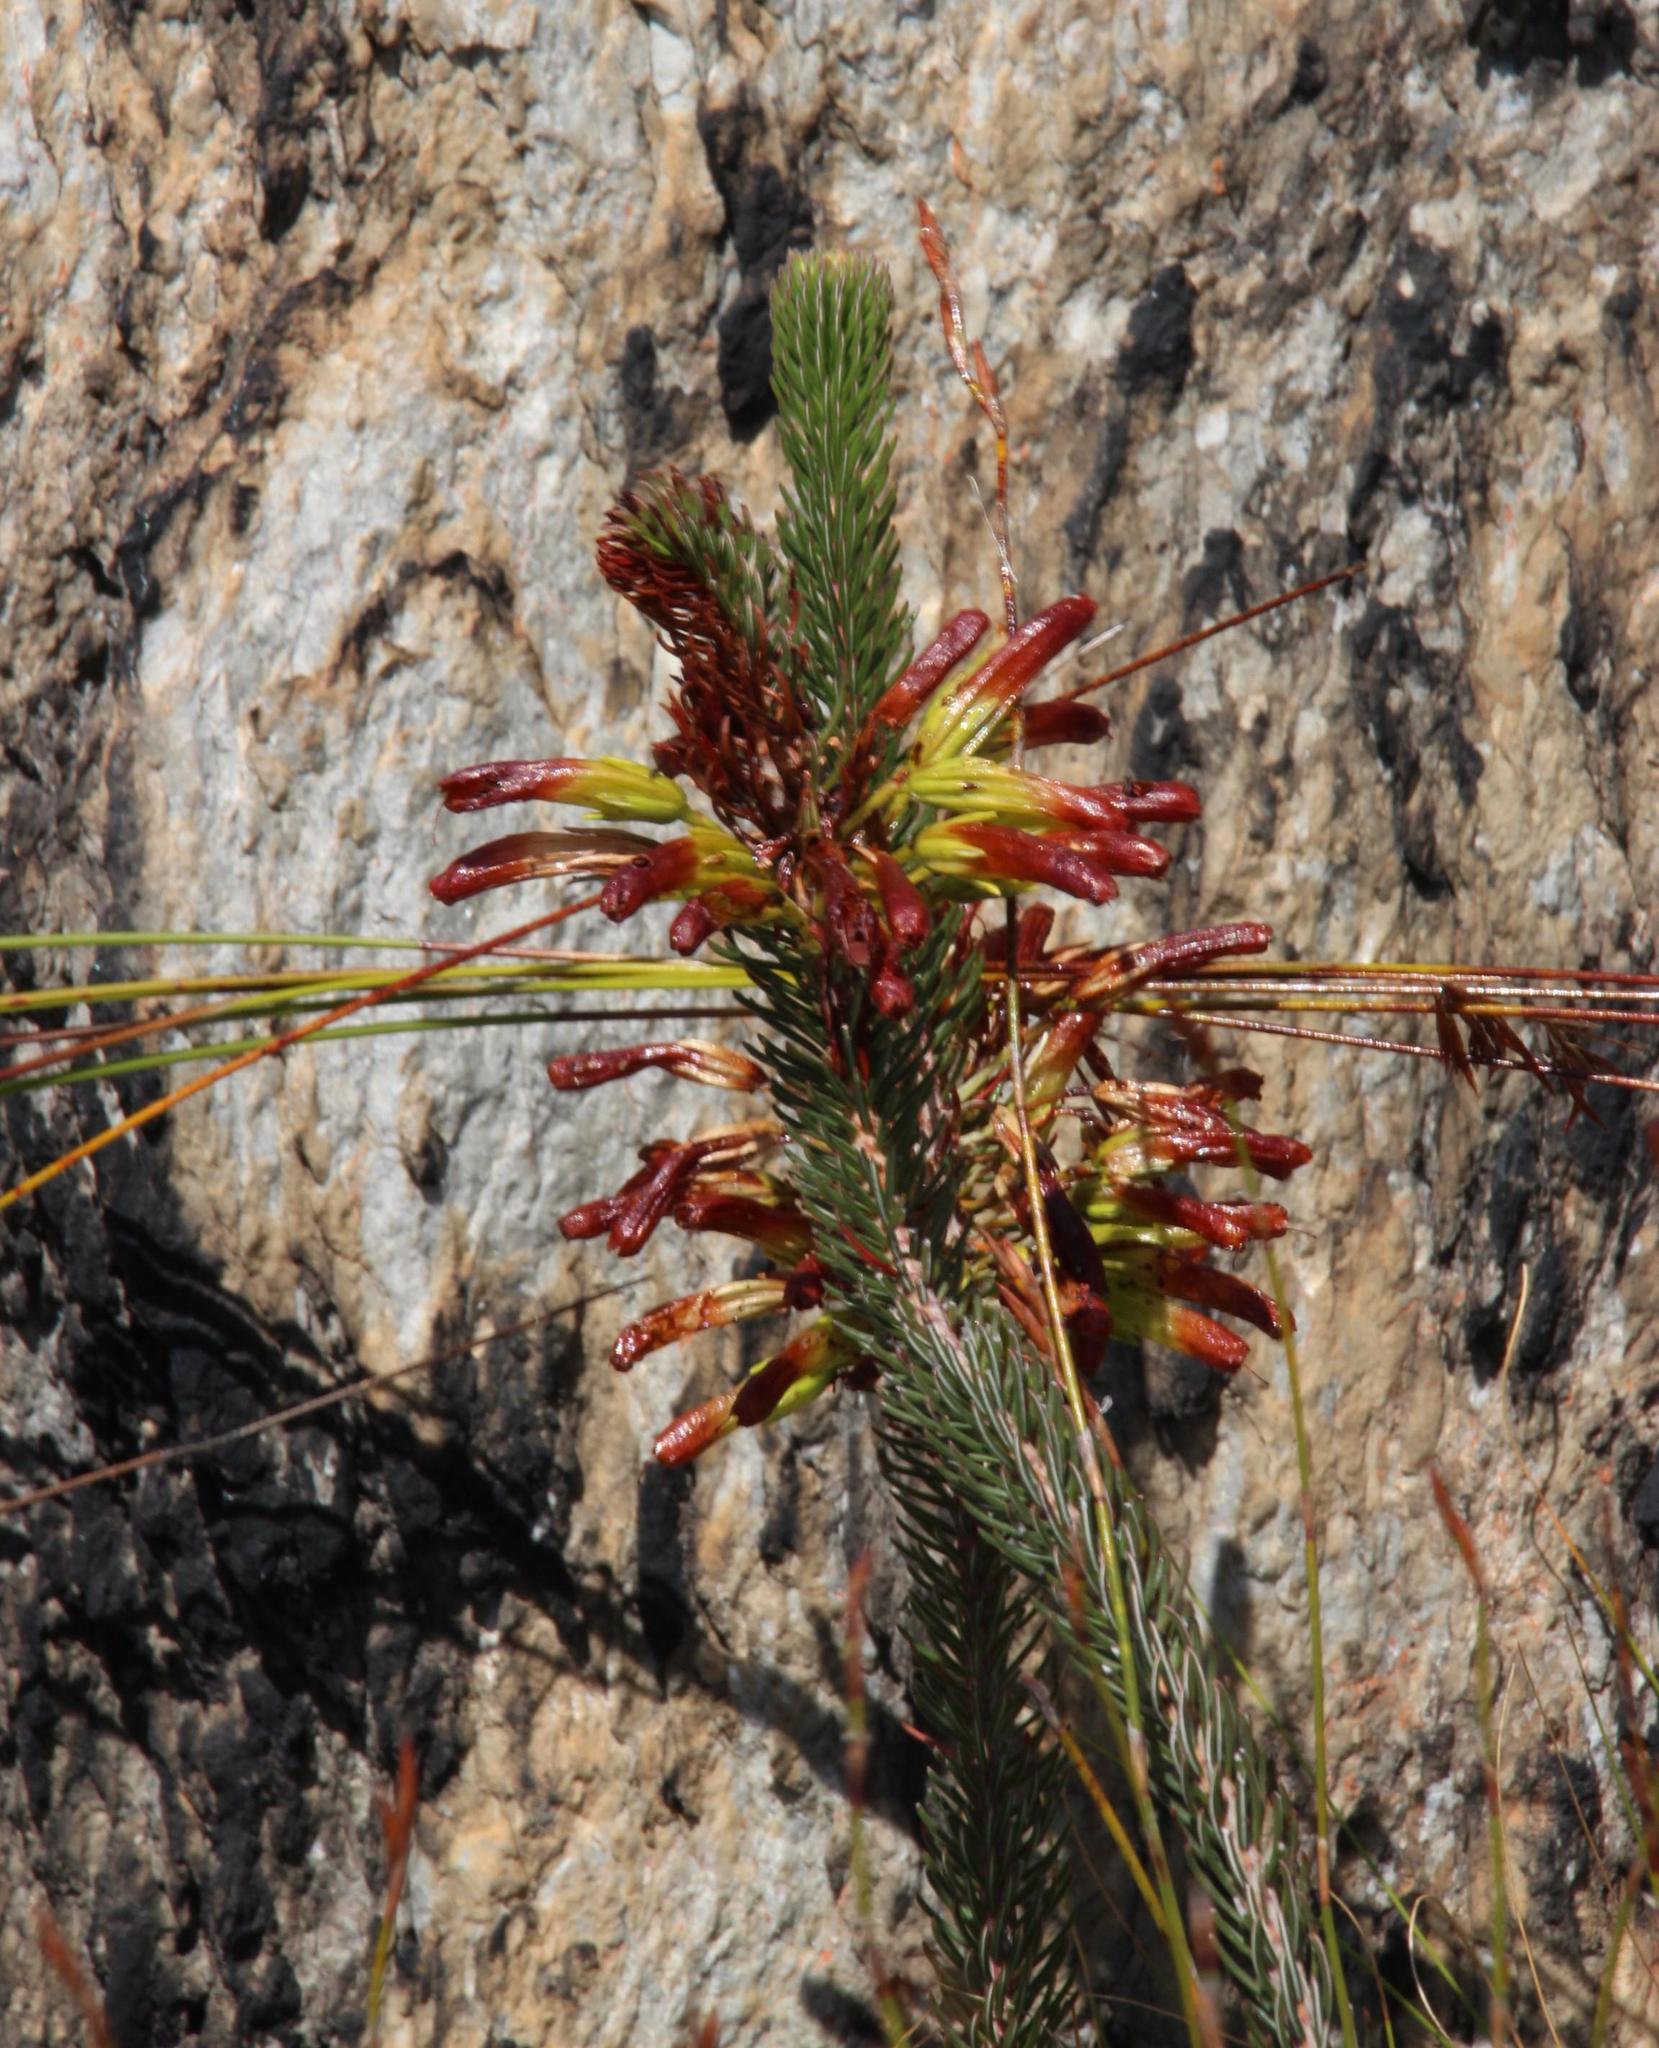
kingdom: Plantae
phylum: Tracheophyta
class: Magnoliopsida
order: Ericales
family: Ericaceae
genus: Erica
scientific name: Erica thomae
